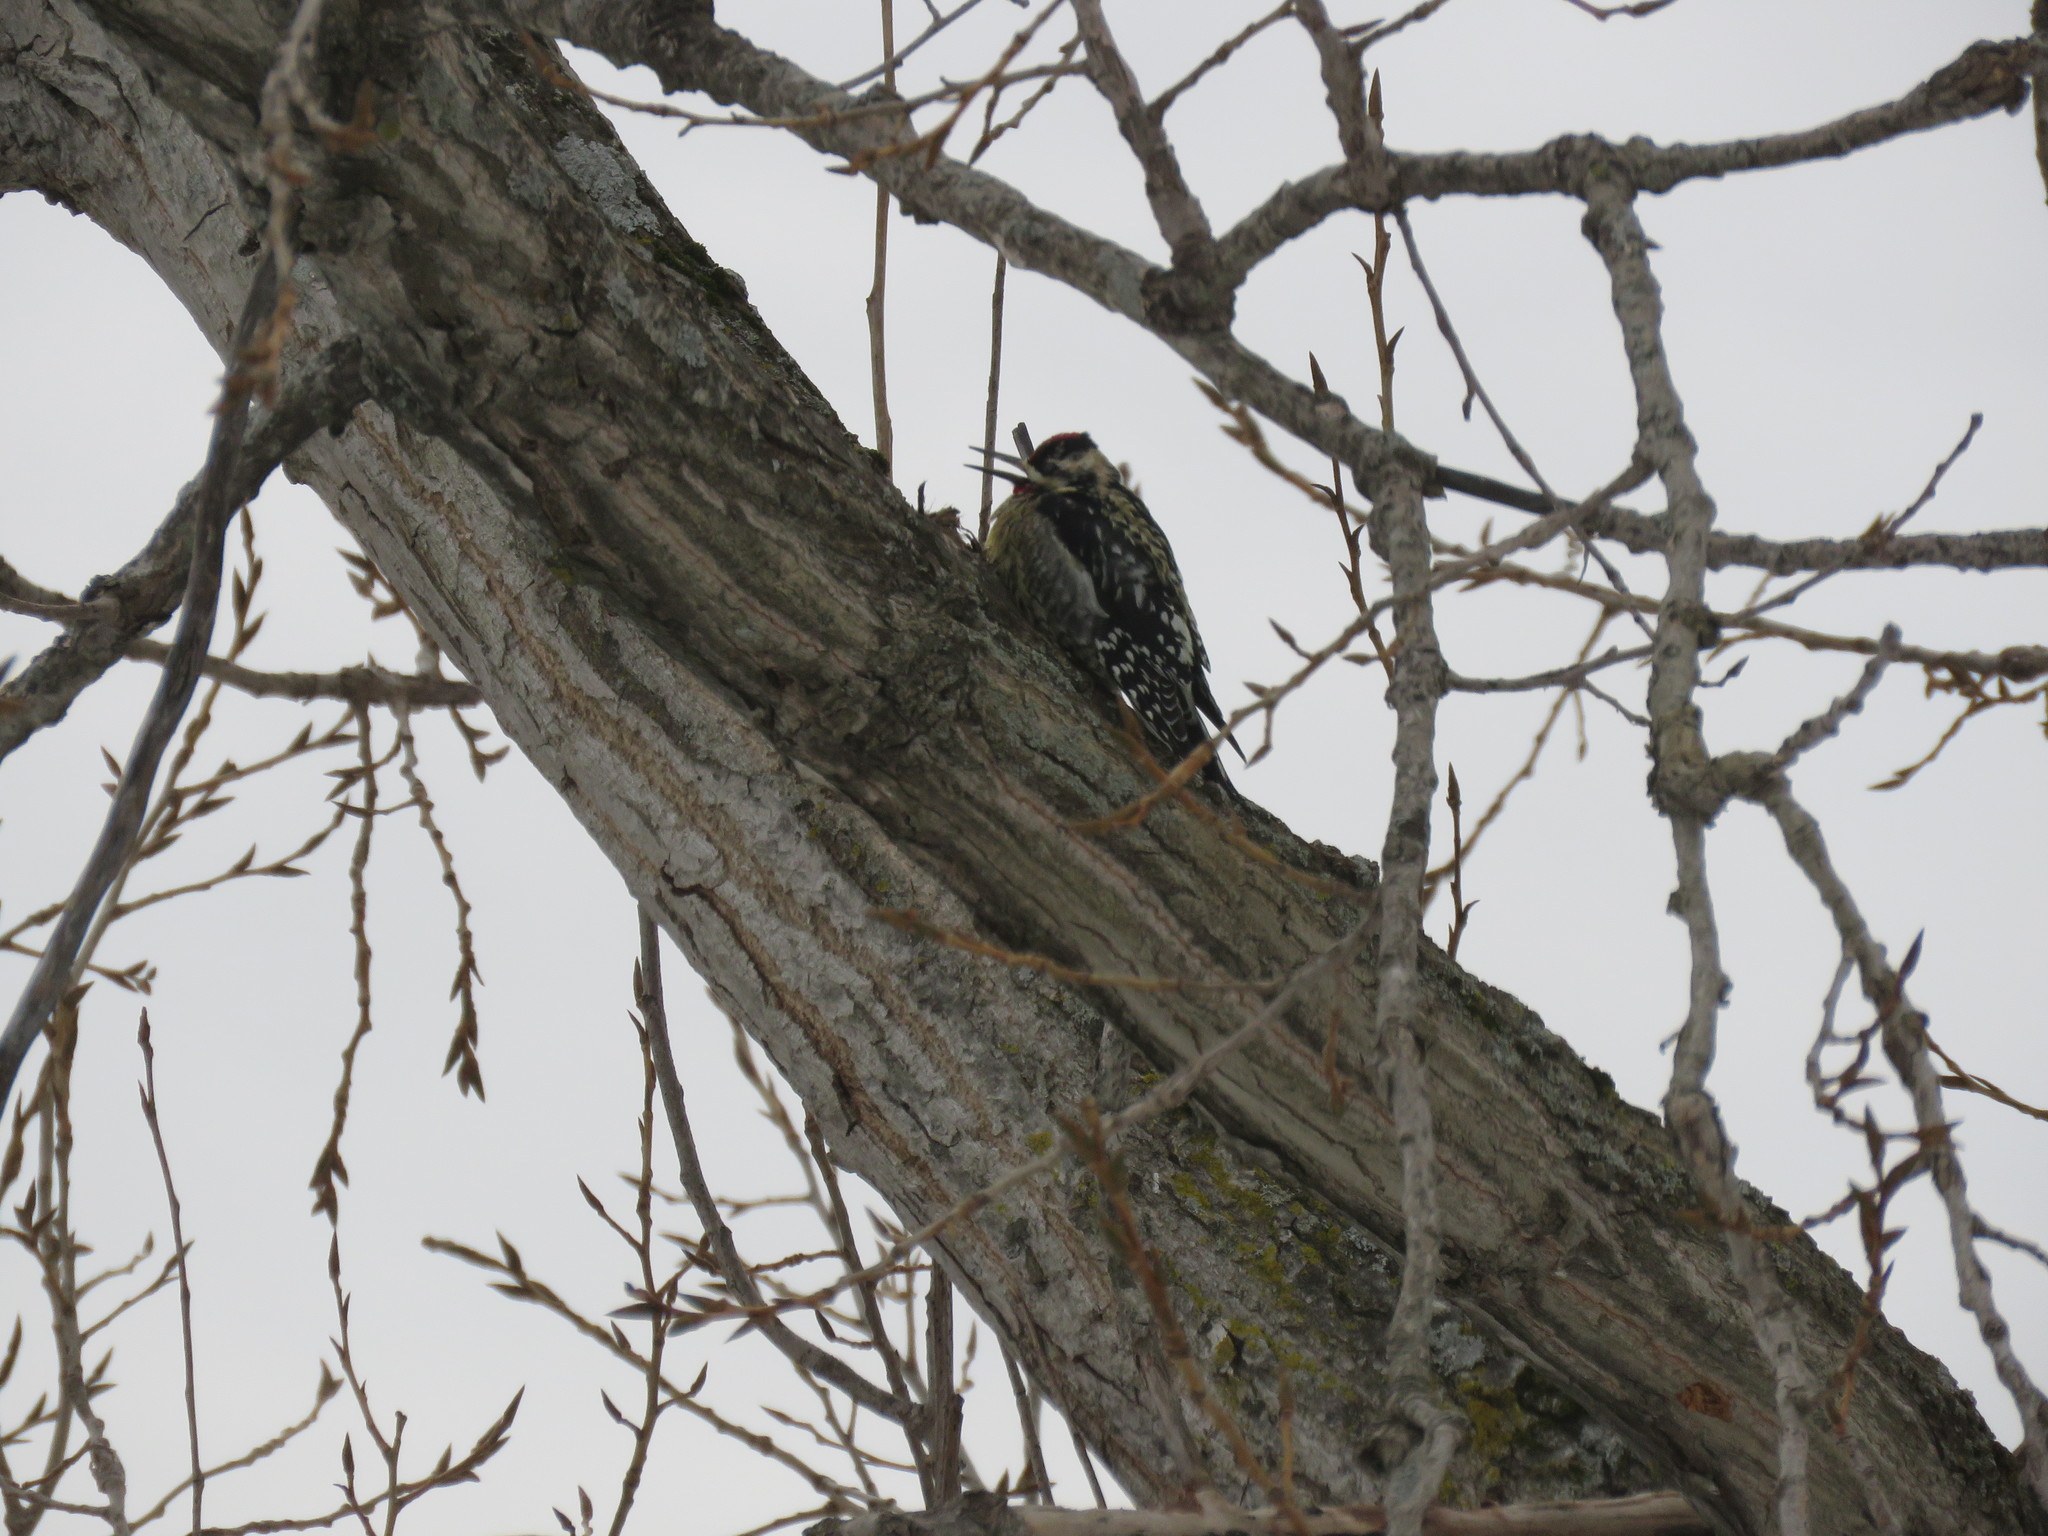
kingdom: Animalia
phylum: Chordata
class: Aves
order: Piciformes
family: Picidae
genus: Sphyrapicus
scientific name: Sphyrapicus varius
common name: Yellow-bellied sapsucker
